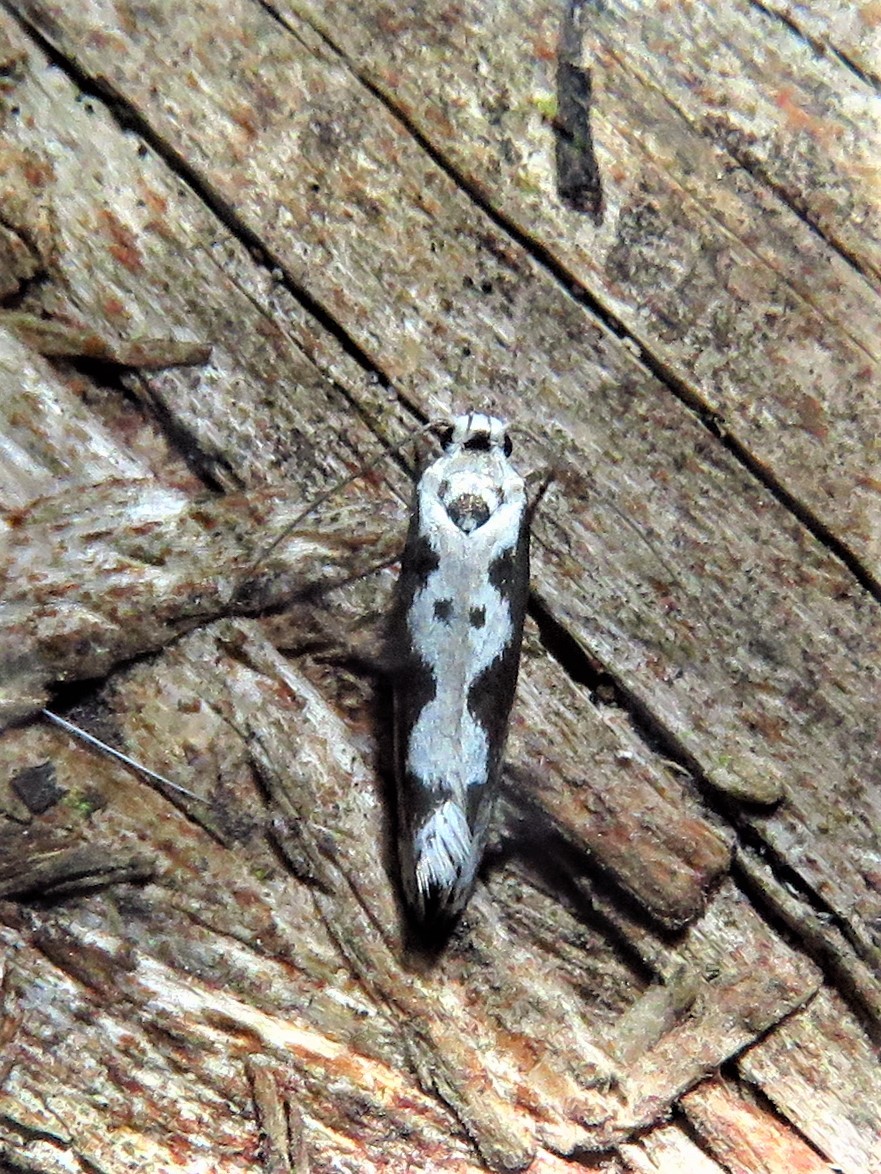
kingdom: Animalia
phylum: Arthropoda
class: Insecta
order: Lepidoptera
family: Ethmiidae
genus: Ethmia
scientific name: Ethmia hodgesella
